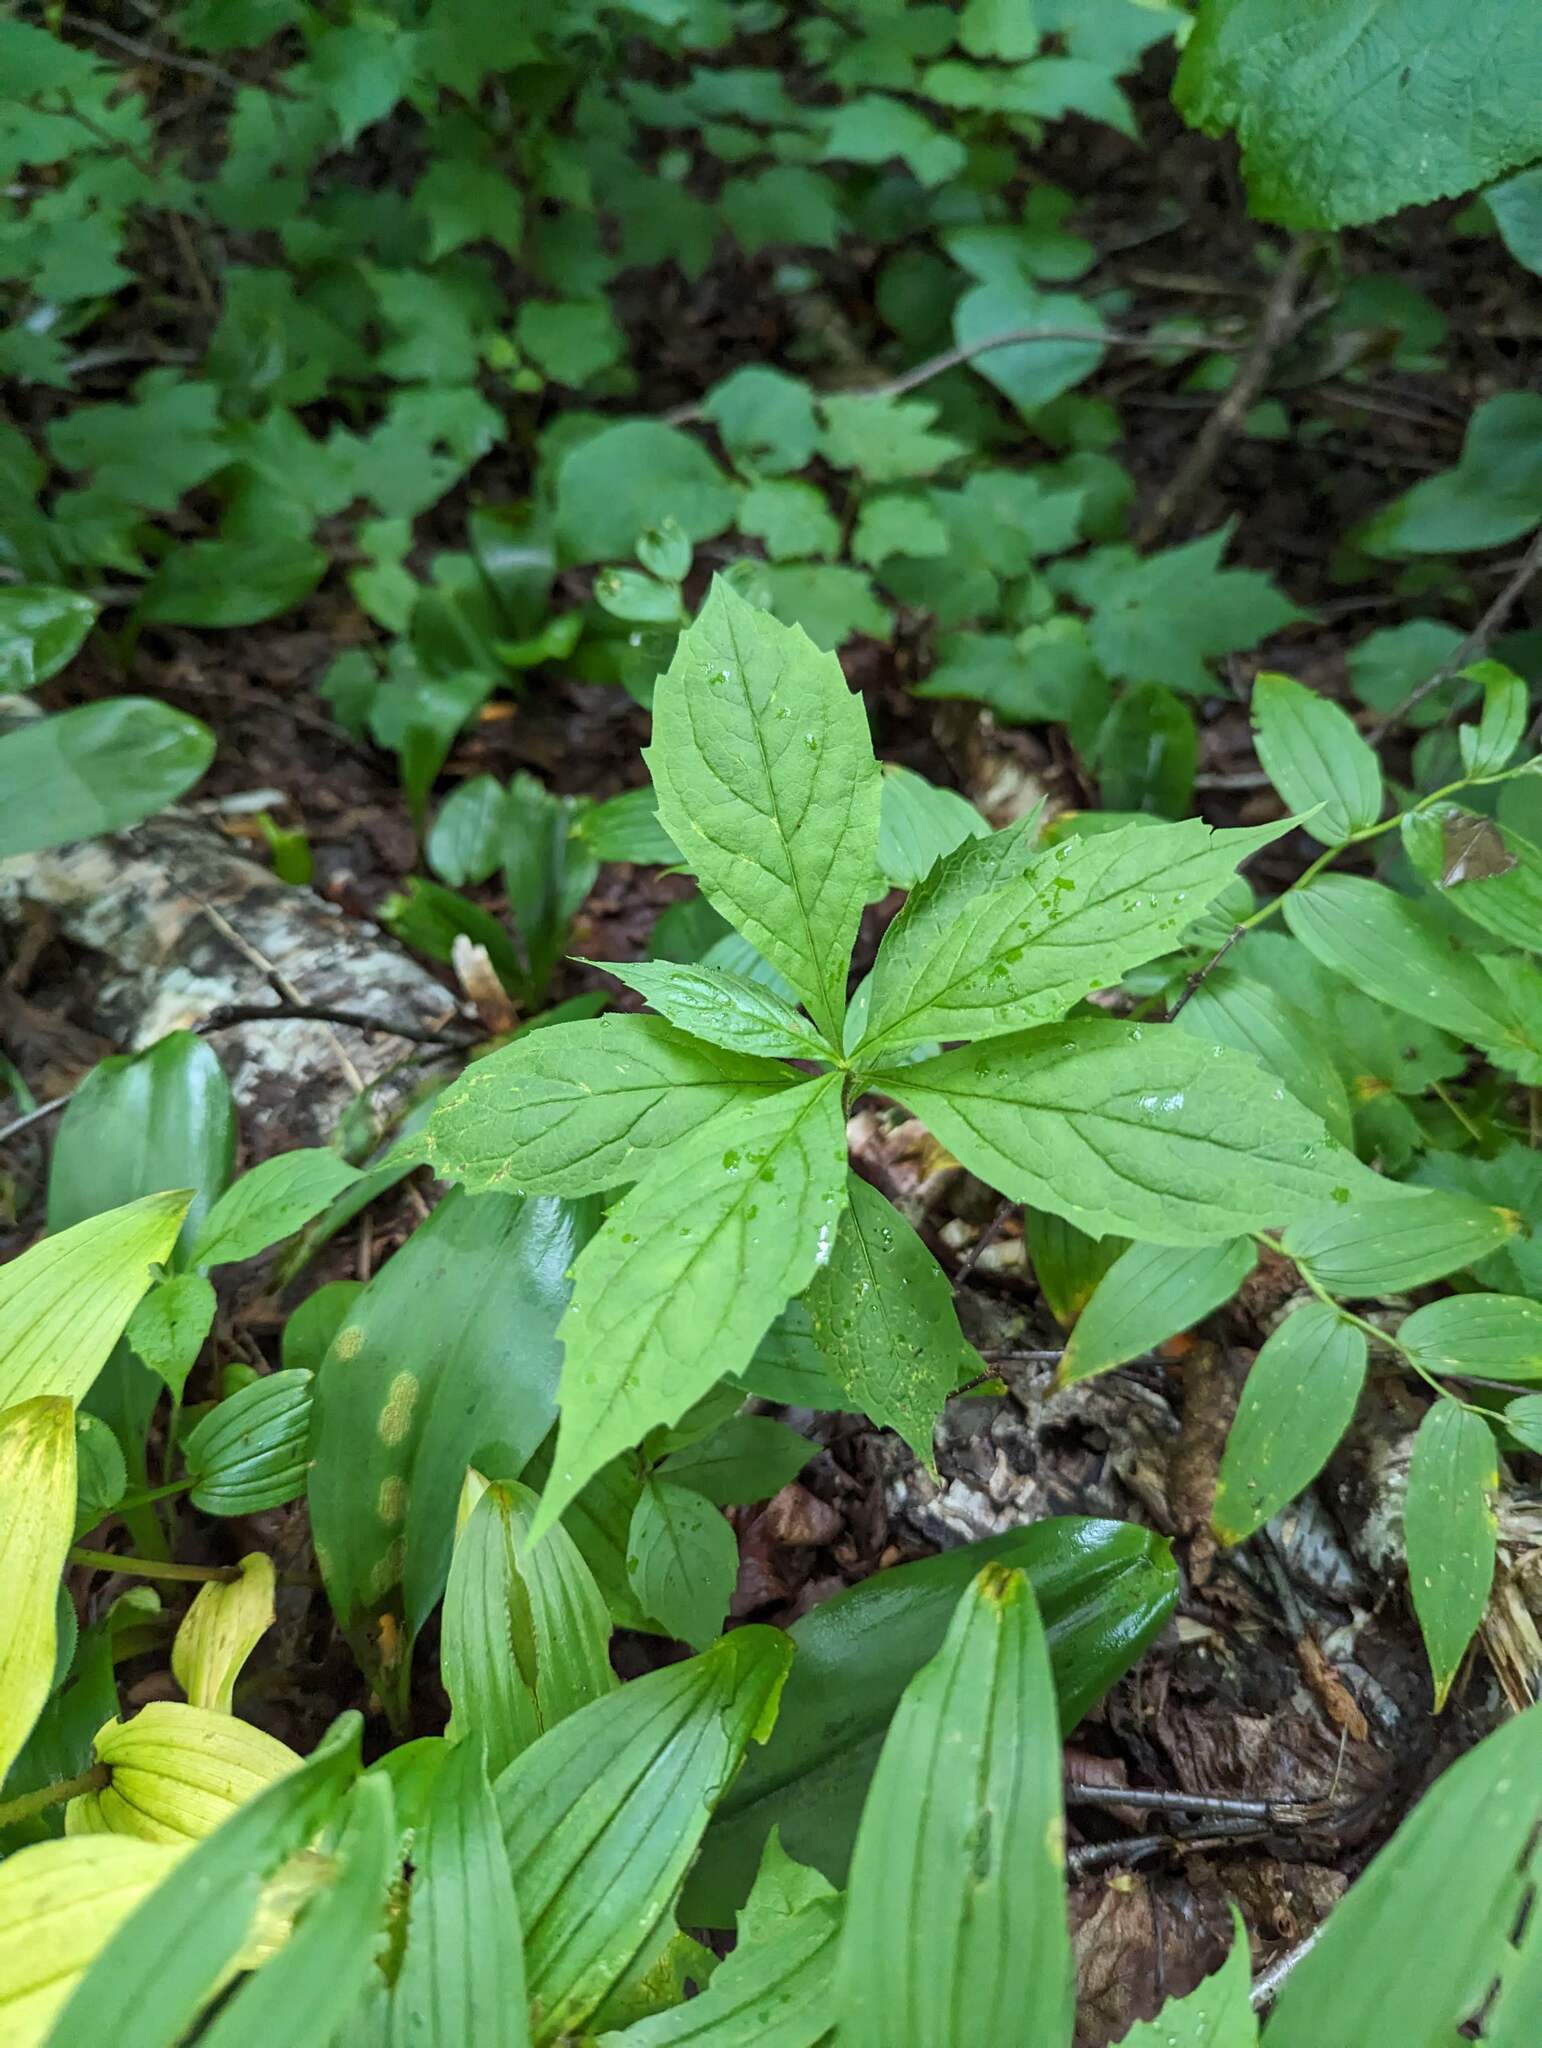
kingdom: Plantae
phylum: Tracheophyta
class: Magnoliopsida
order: Asterales
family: Asteraceae
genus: Oclemena
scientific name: Oclemena acuminata
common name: Mountain aster
